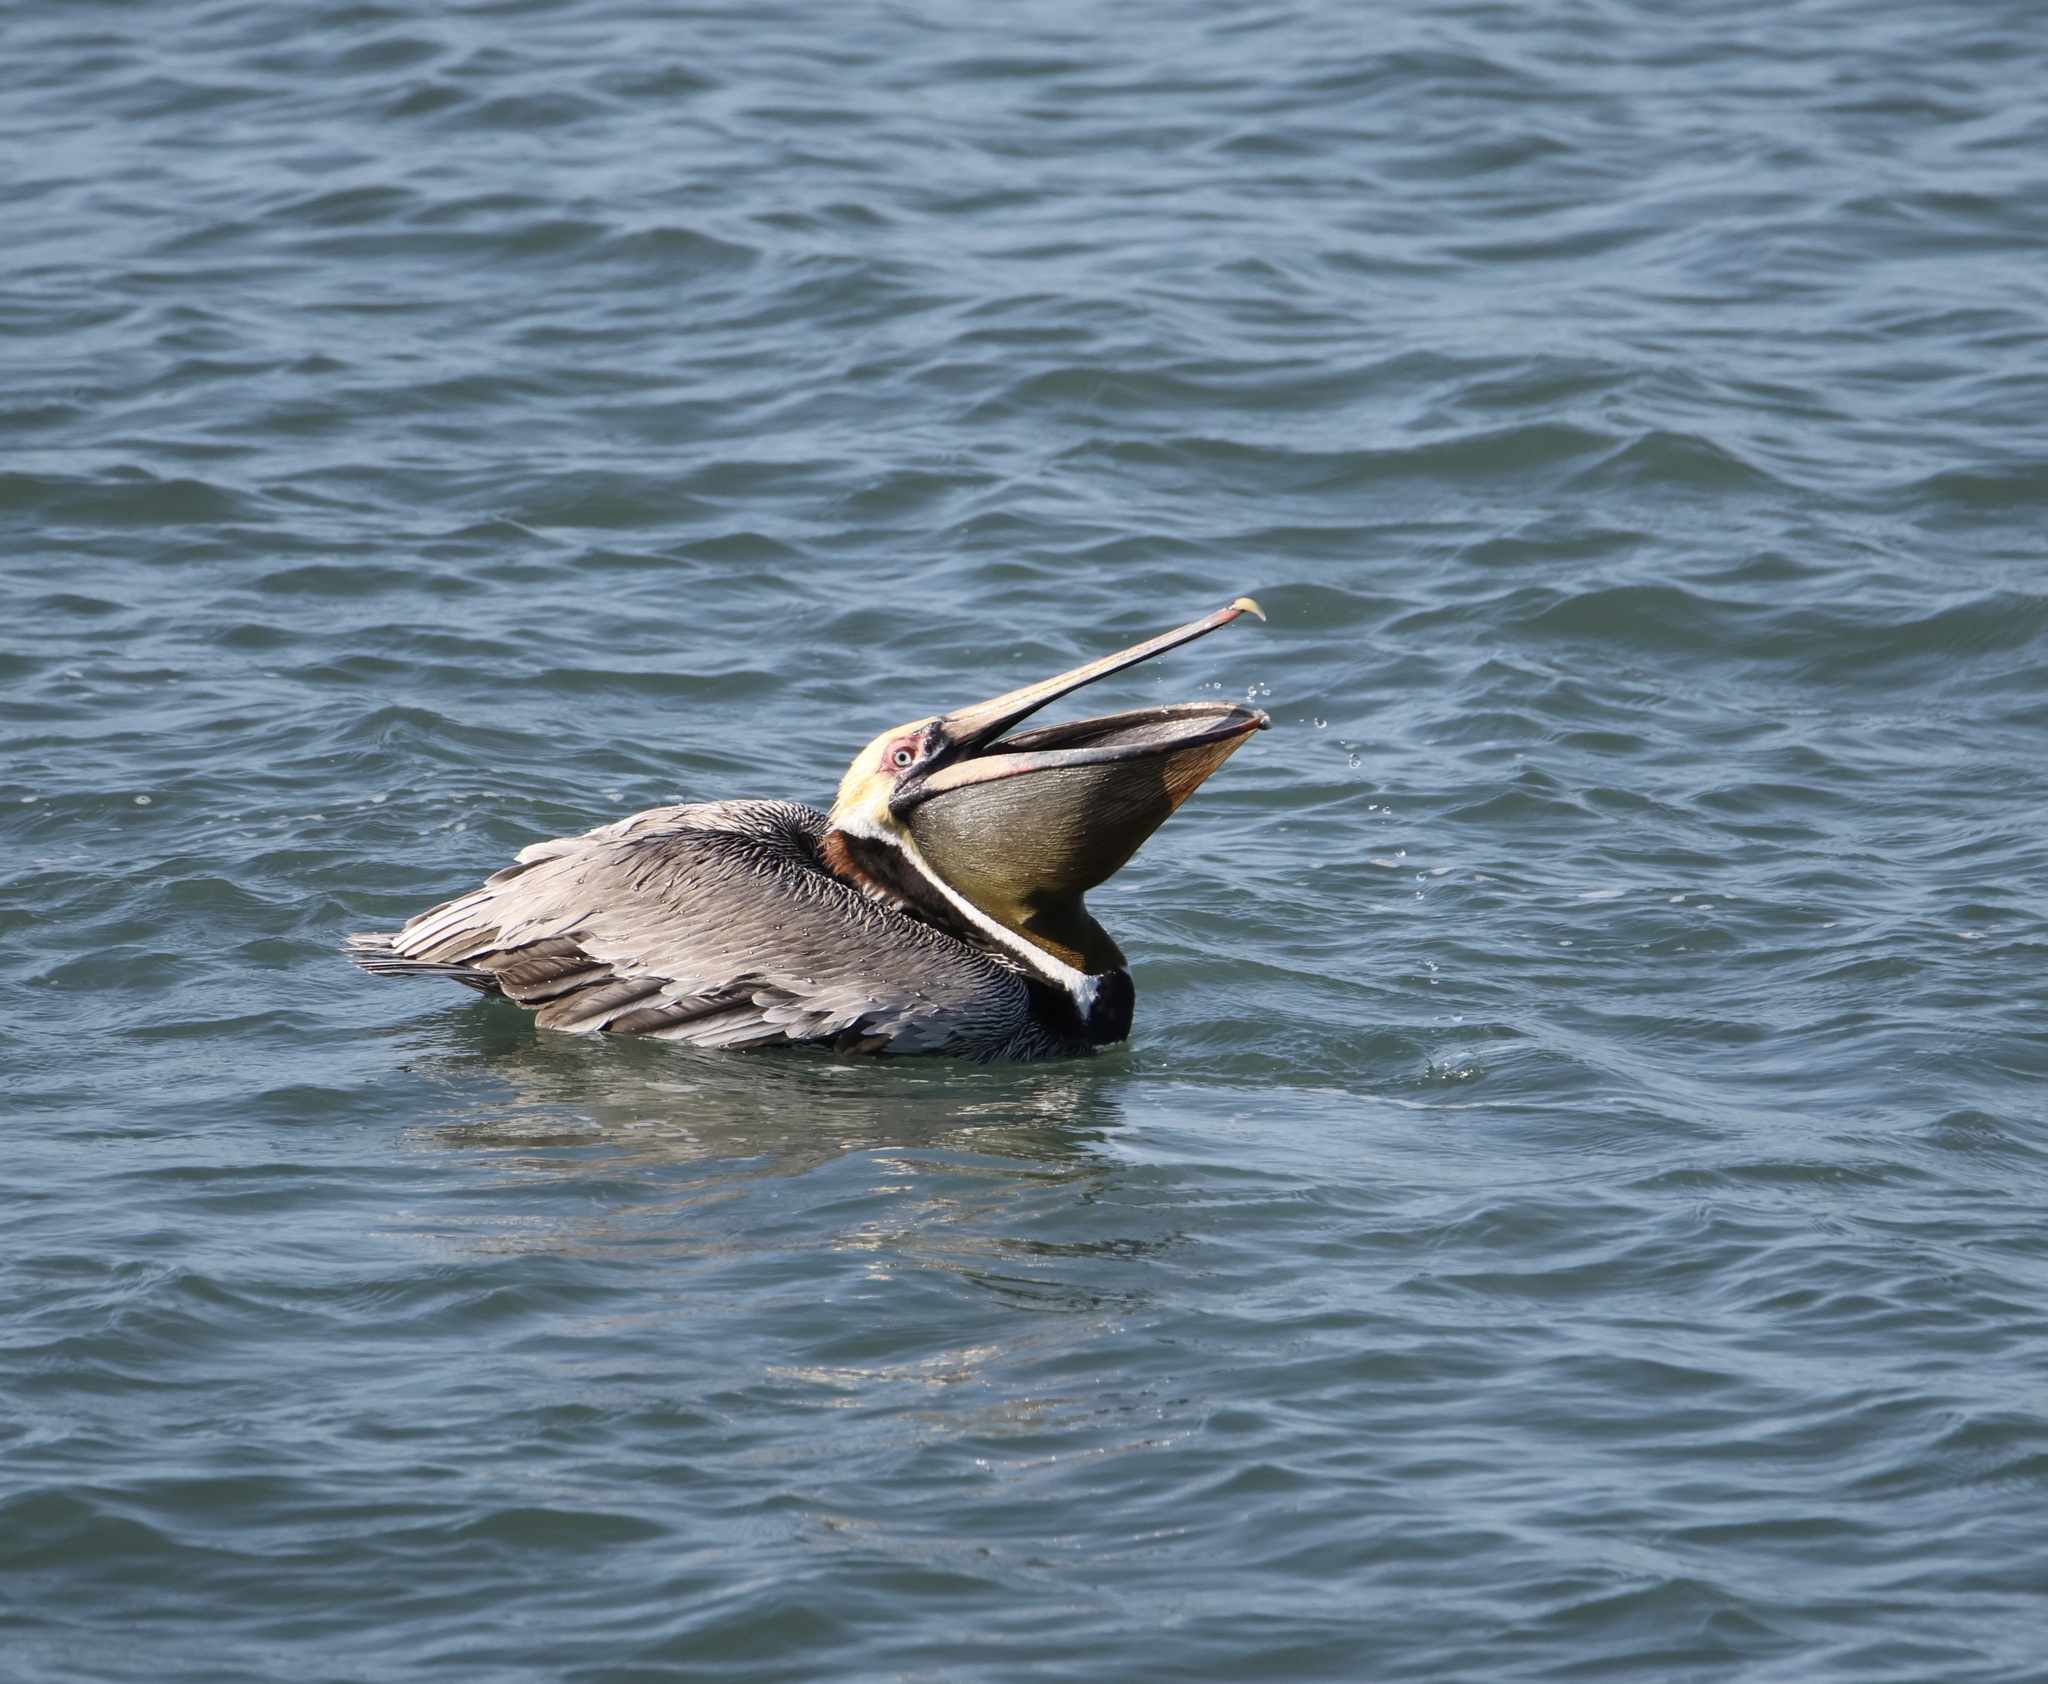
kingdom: Animalia
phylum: Chordata
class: Aves
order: Pelecaniformes
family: Pelecanidae
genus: Pelecanus
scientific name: Pelecanus occidentalis
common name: Brown pelican
